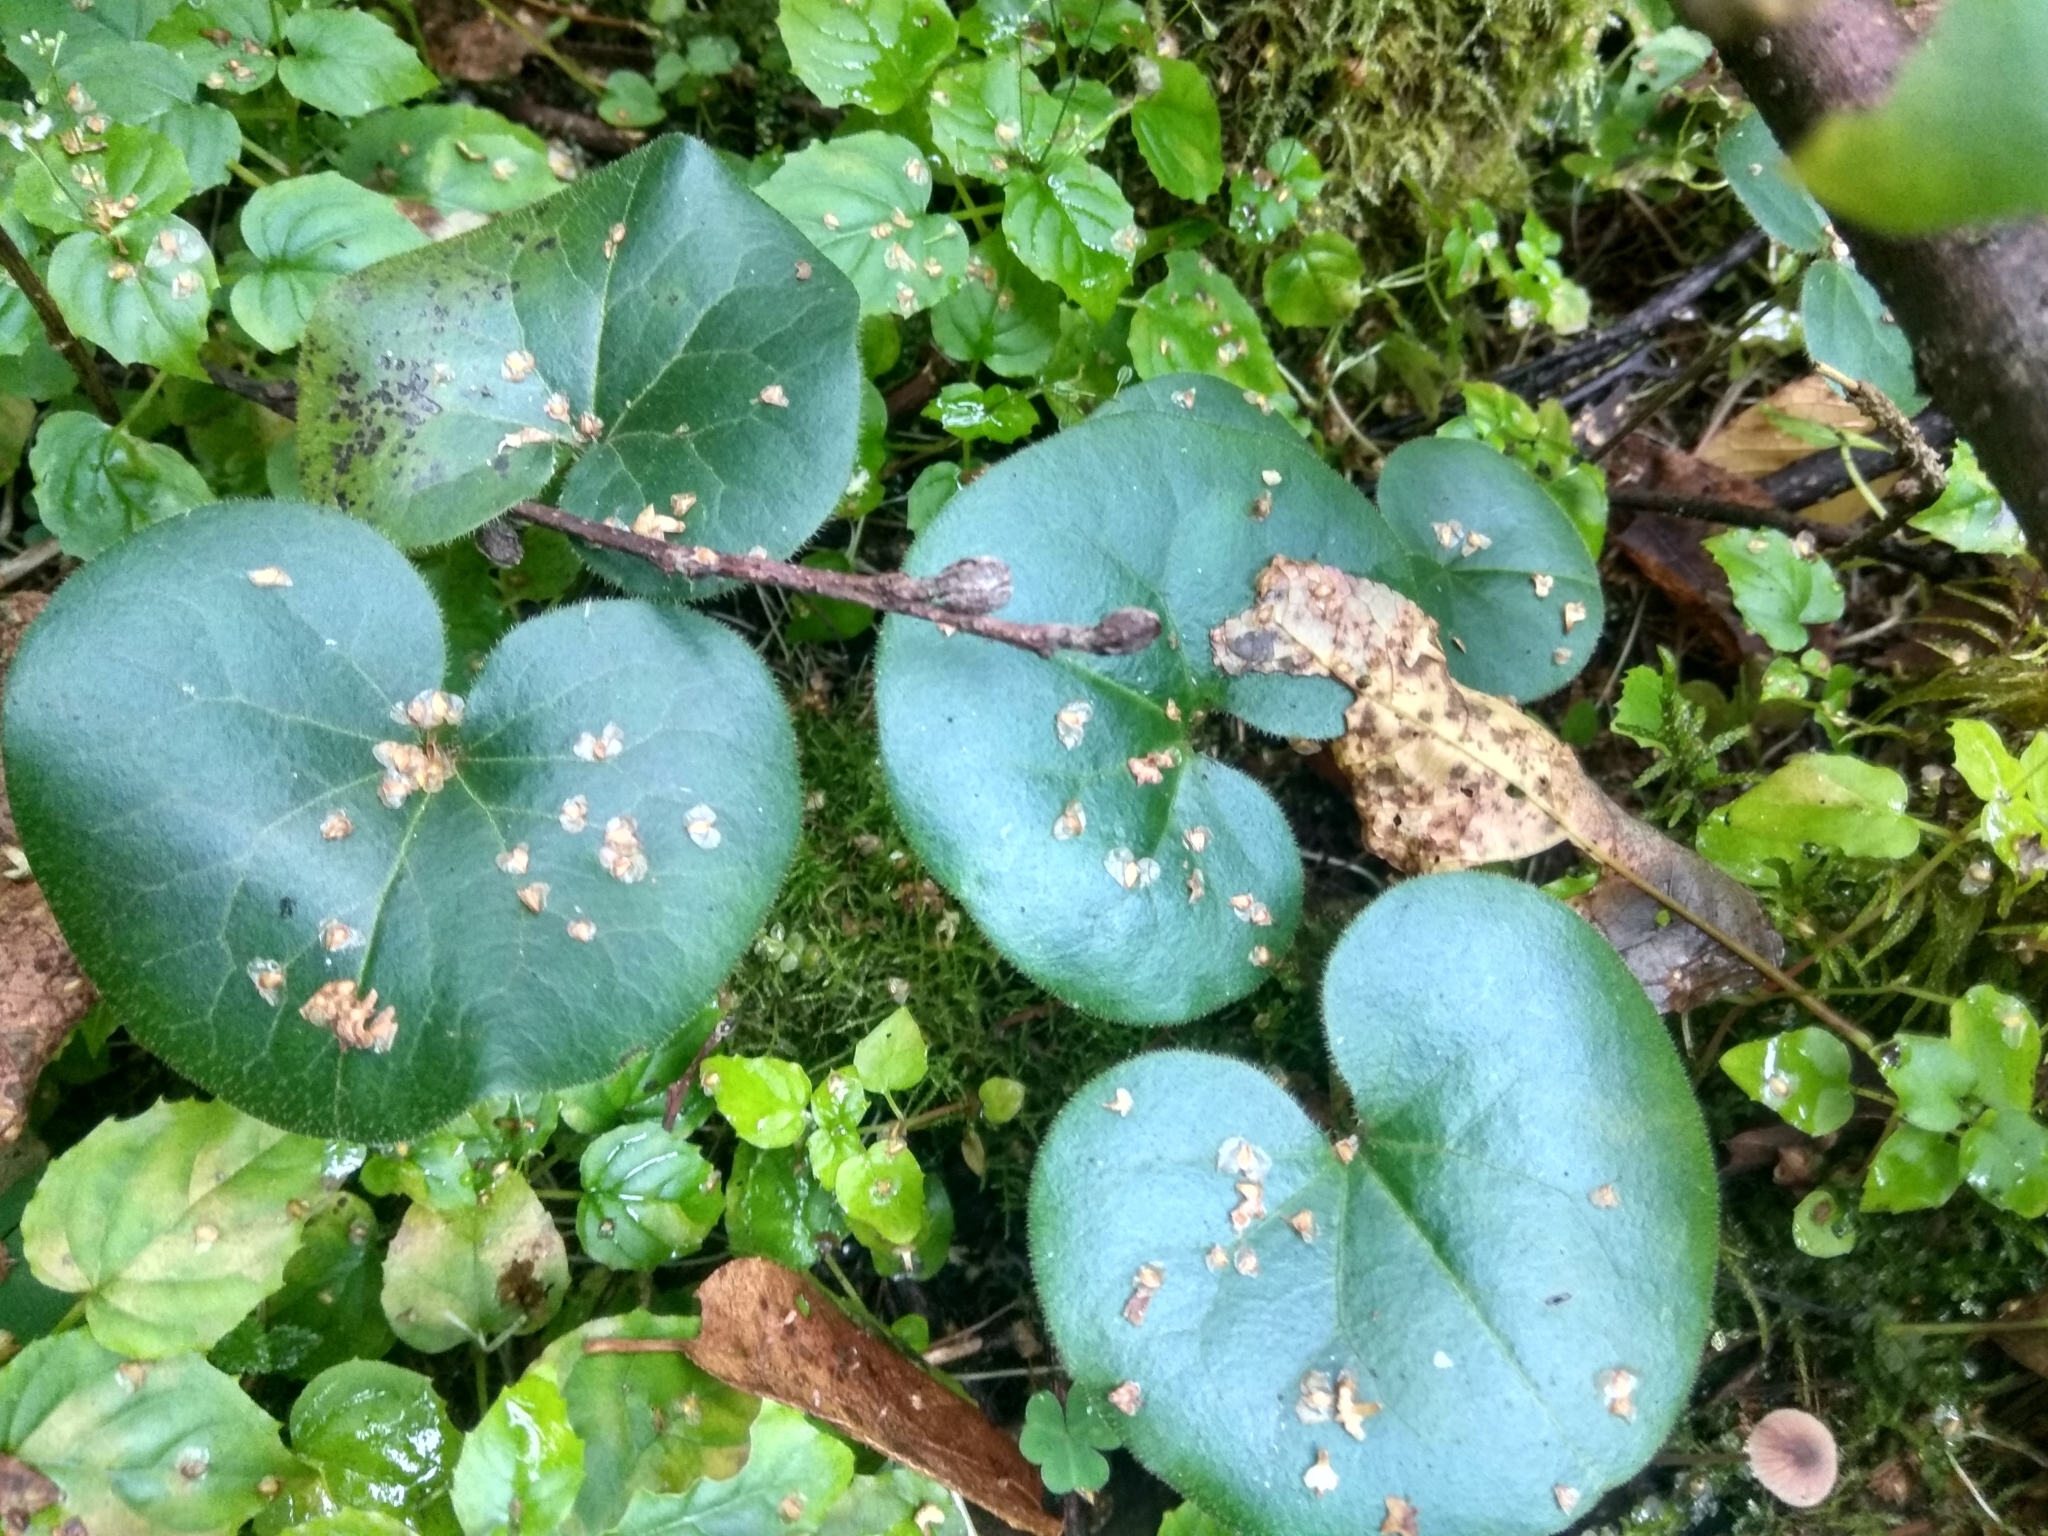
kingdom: Plantae
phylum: Tracheophyta
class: Magnoliopsida
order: Piperales
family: Aristolochiaceae
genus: Asarum
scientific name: Asarum europaeum
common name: Asarabacca
